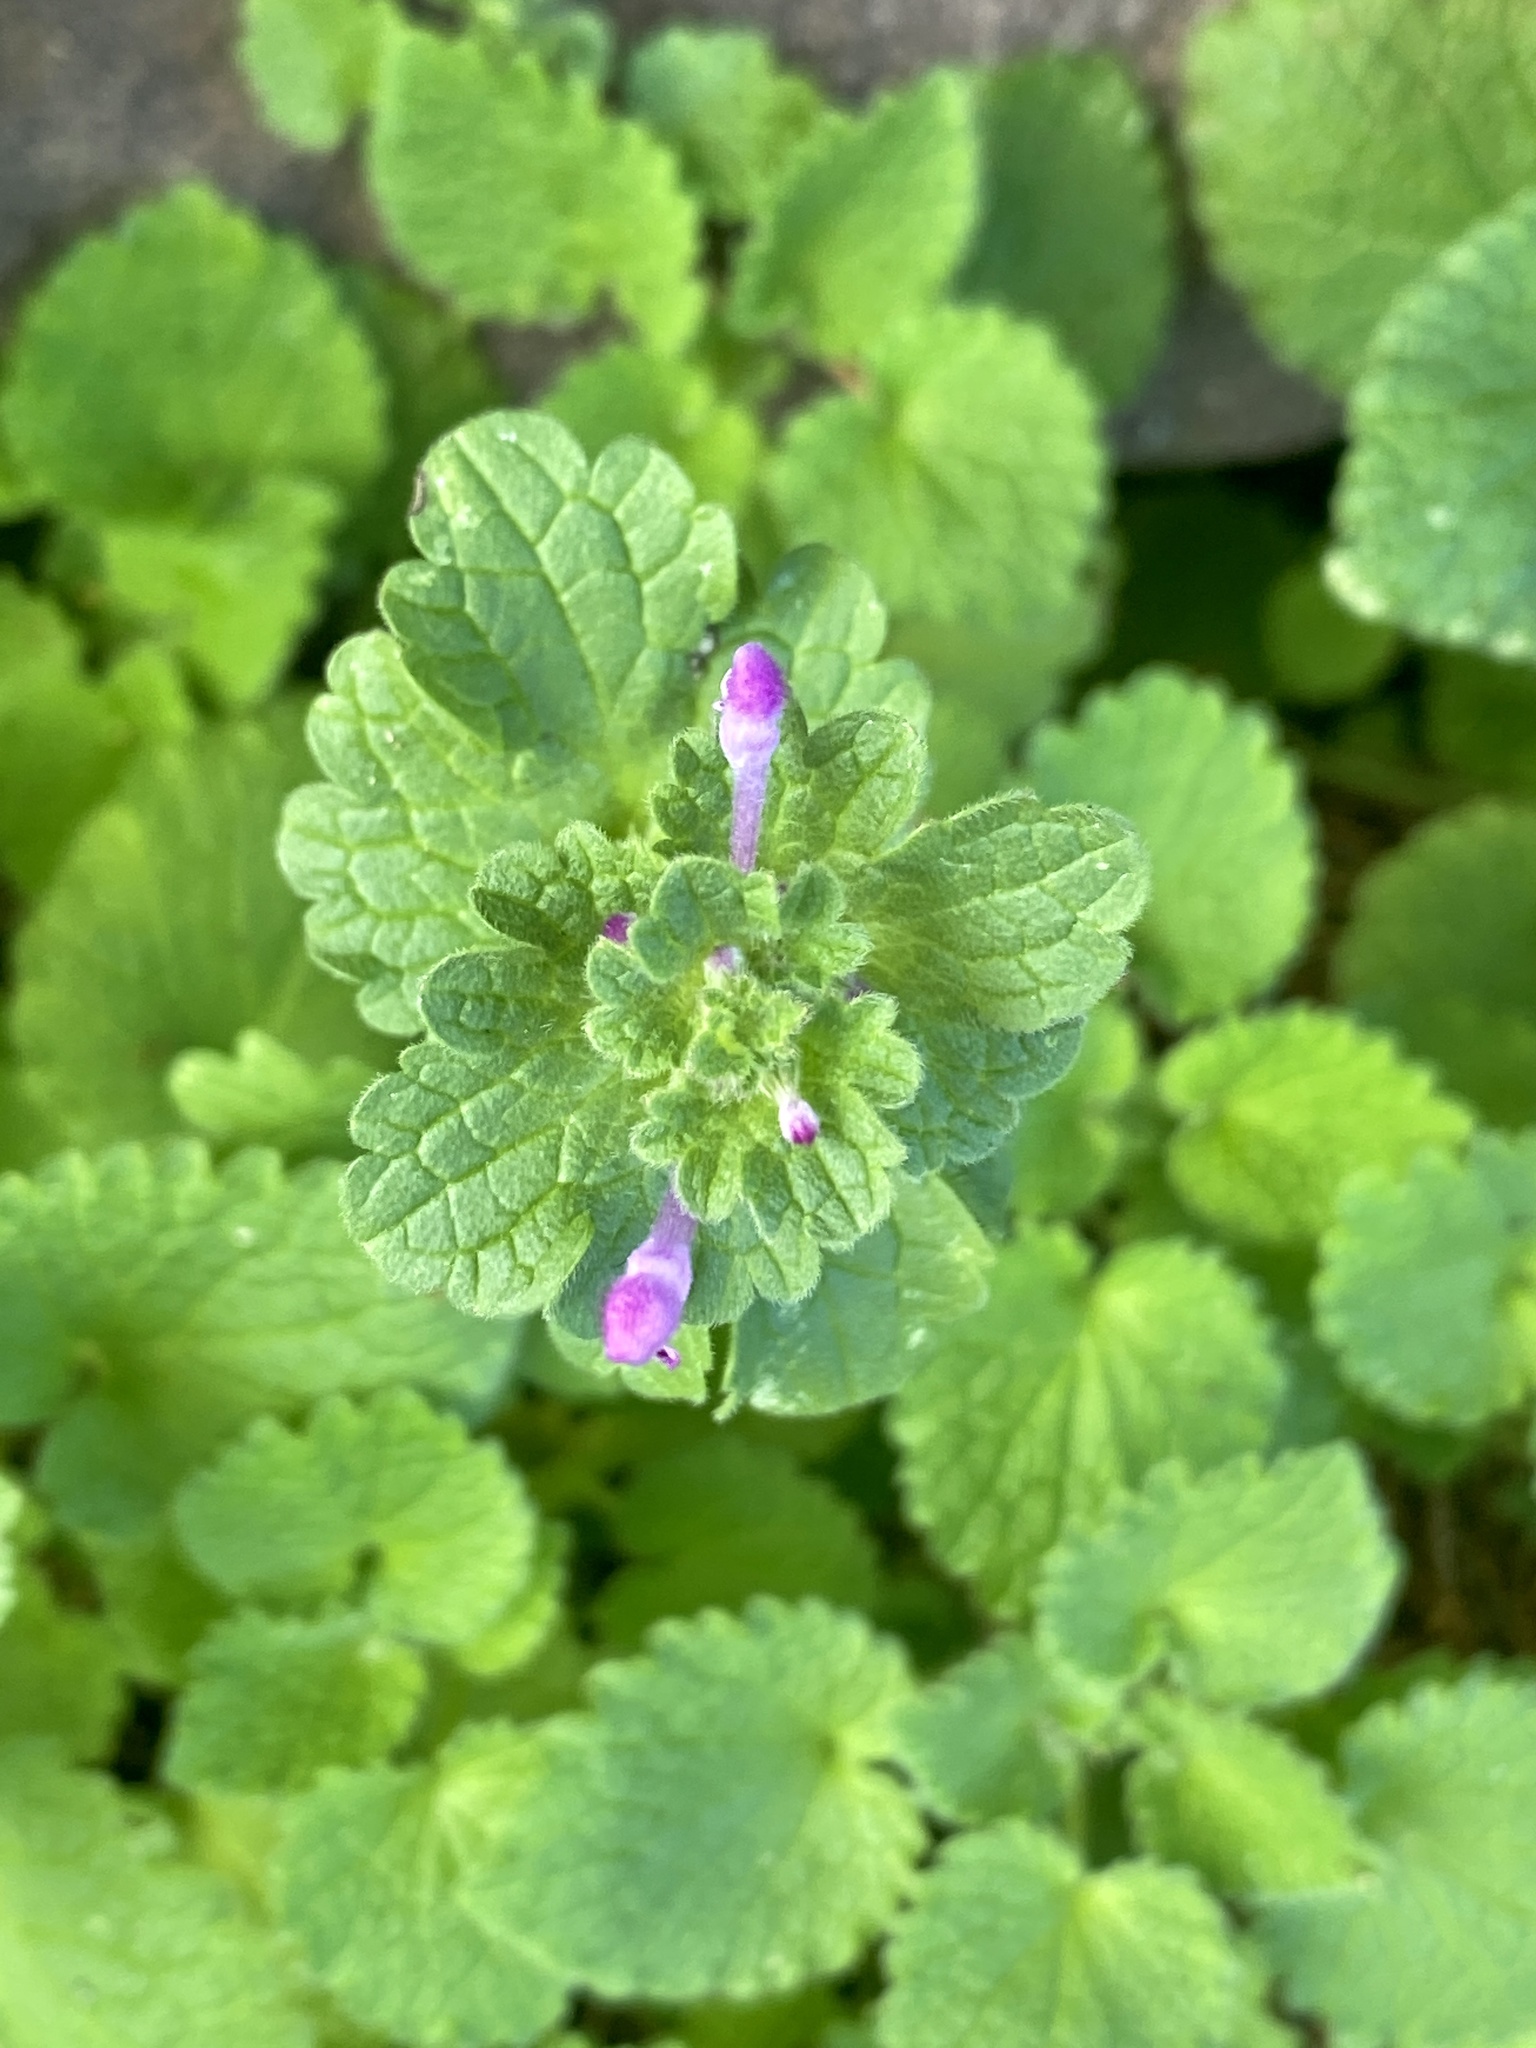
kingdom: Plantae
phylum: Tracheophyta
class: Magnoliopsida
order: Lamiales
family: Lamiaceae
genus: Lamium
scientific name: Lamium amplexicaule
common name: Henbit dead-nettle
